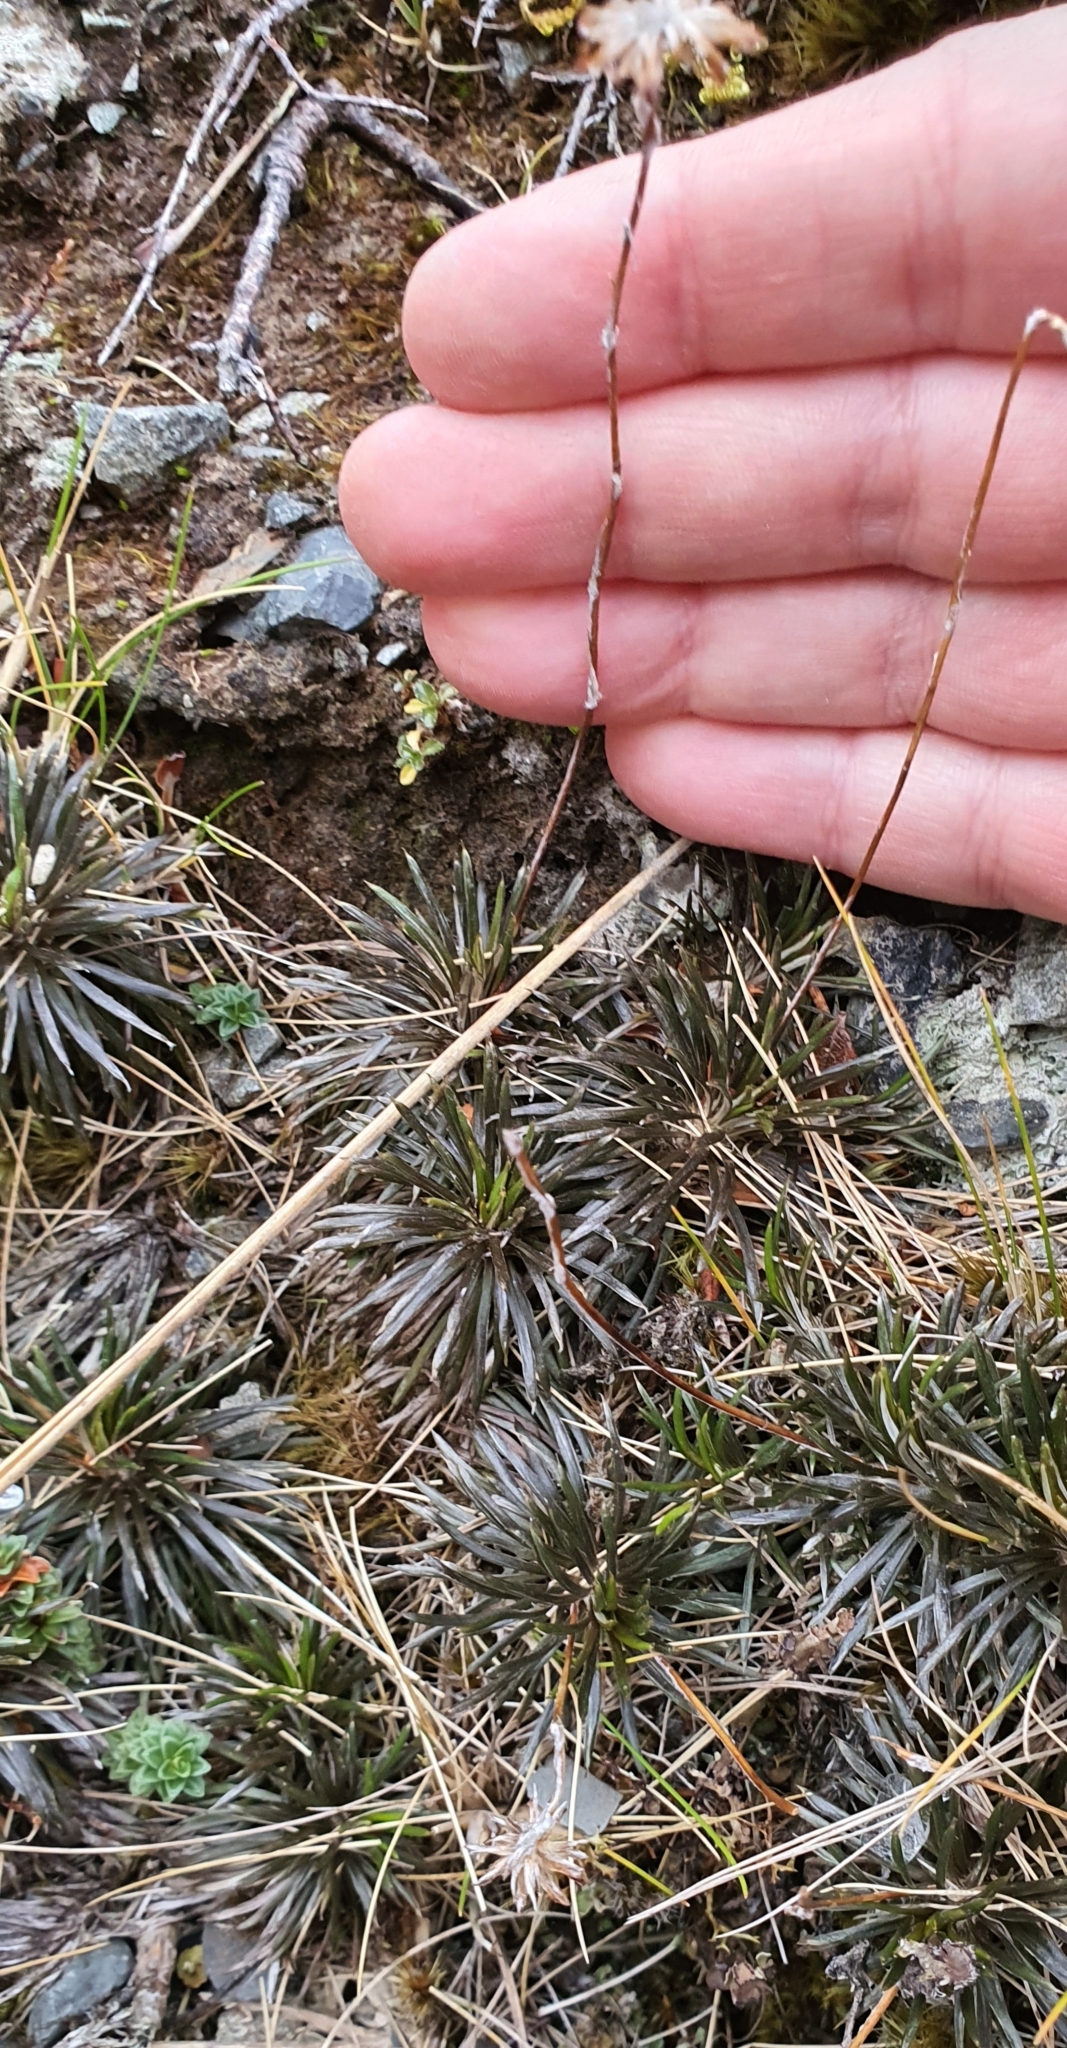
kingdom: Plantae
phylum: Tracheophyta
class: Magnoliopsida
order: Asterales
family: Asteraceae
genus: Celmisia
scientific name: Celmisia laricifolia
